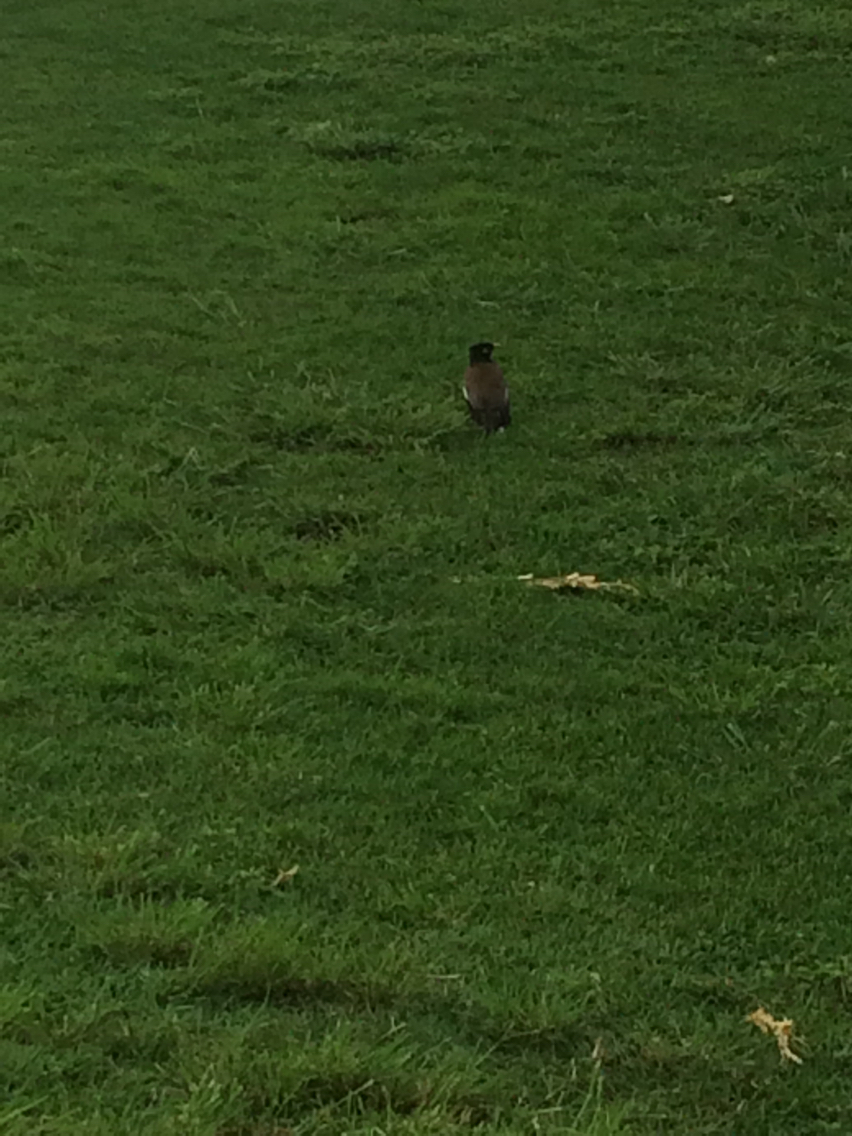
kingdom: Animalia
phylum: Chordata
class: Aves
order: Passeriformes
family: Sturnidae
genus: Acridotheres
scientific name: Acridotheres tristis
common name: Common myna
